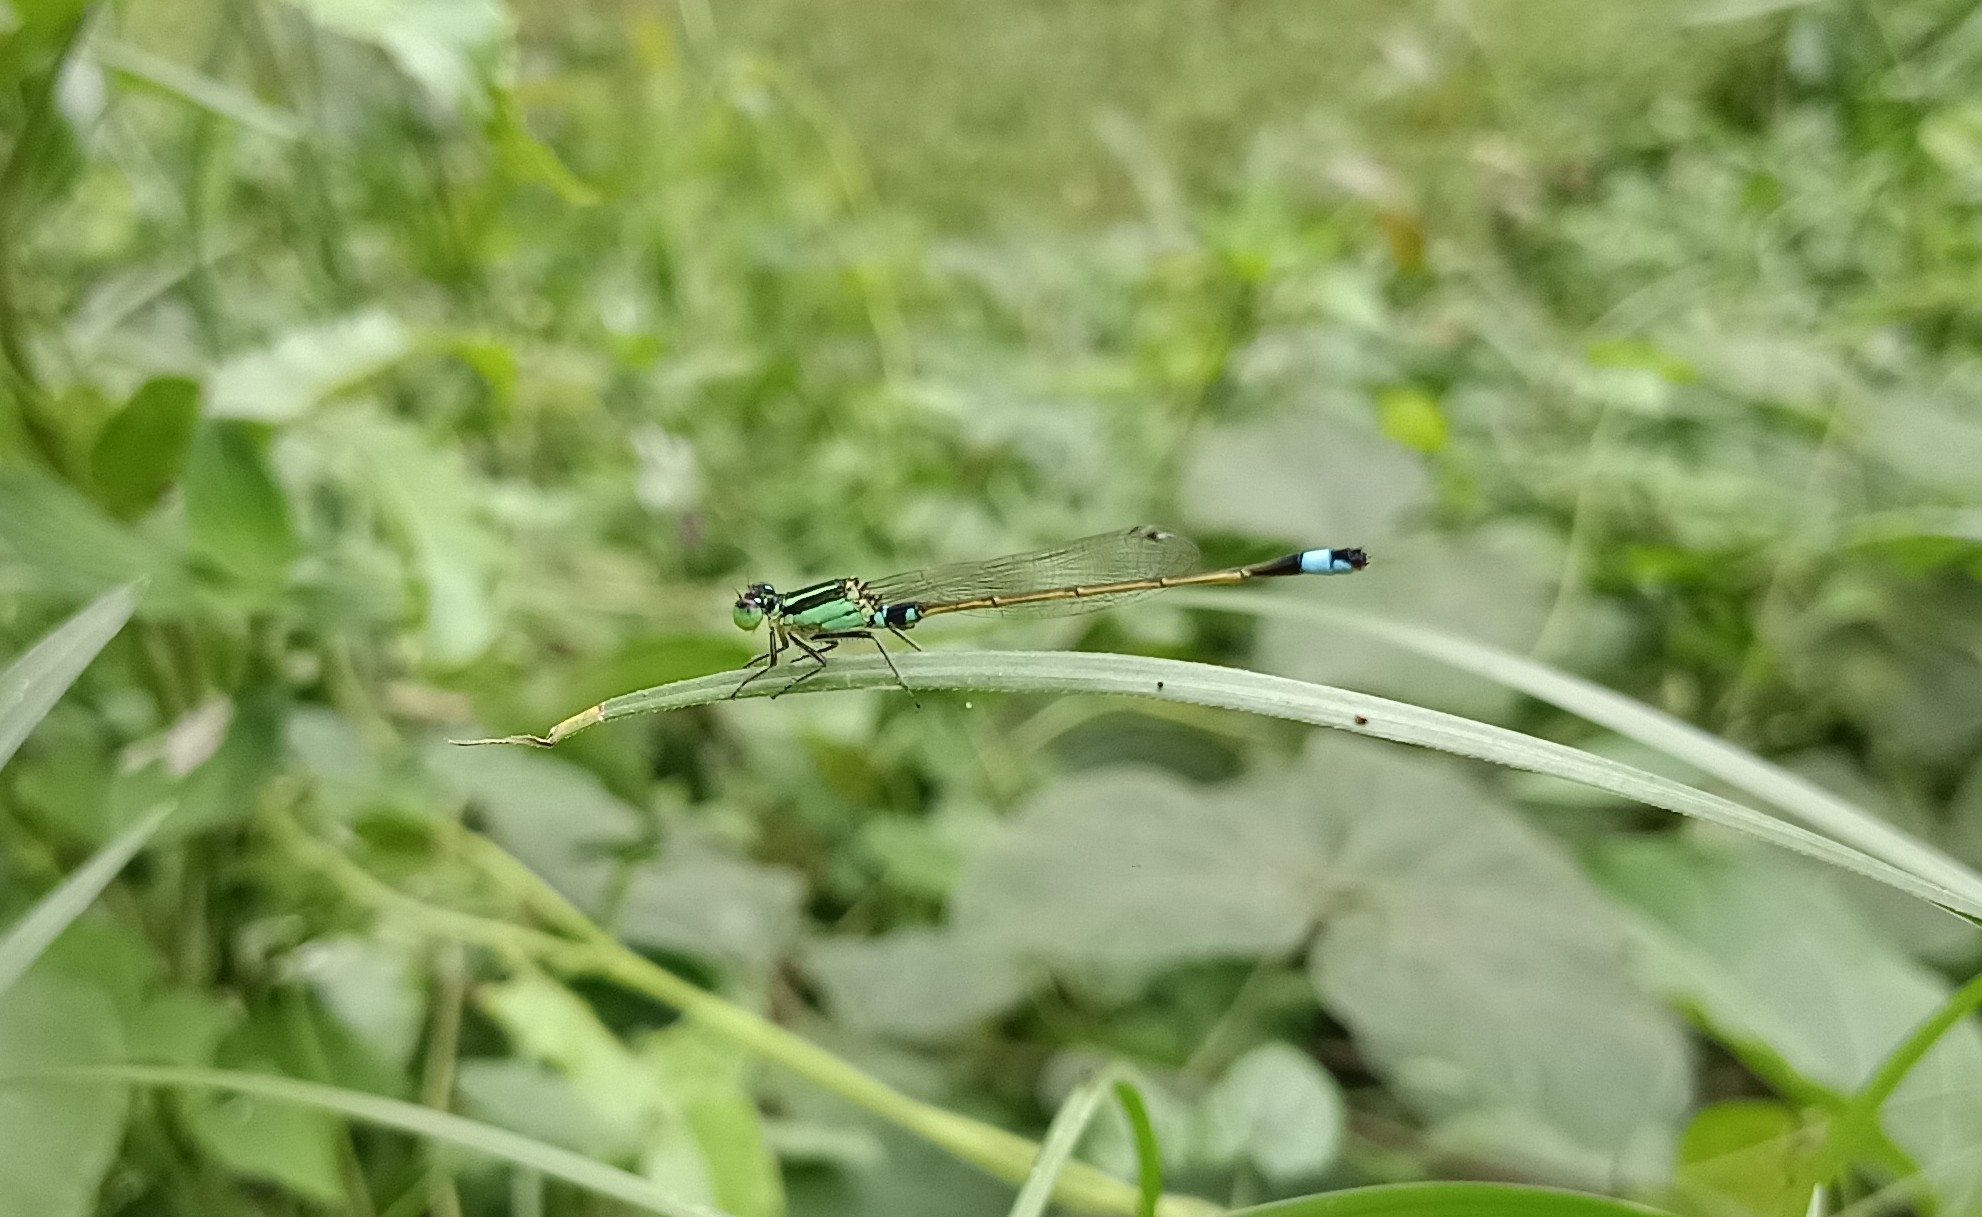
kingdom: Animalia
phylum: Arthropoda
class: Insecta
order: Odonata
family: Coenagrionidae
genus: Ischnura
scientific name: Ischnura senegalensis
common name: Tropical bluetail
